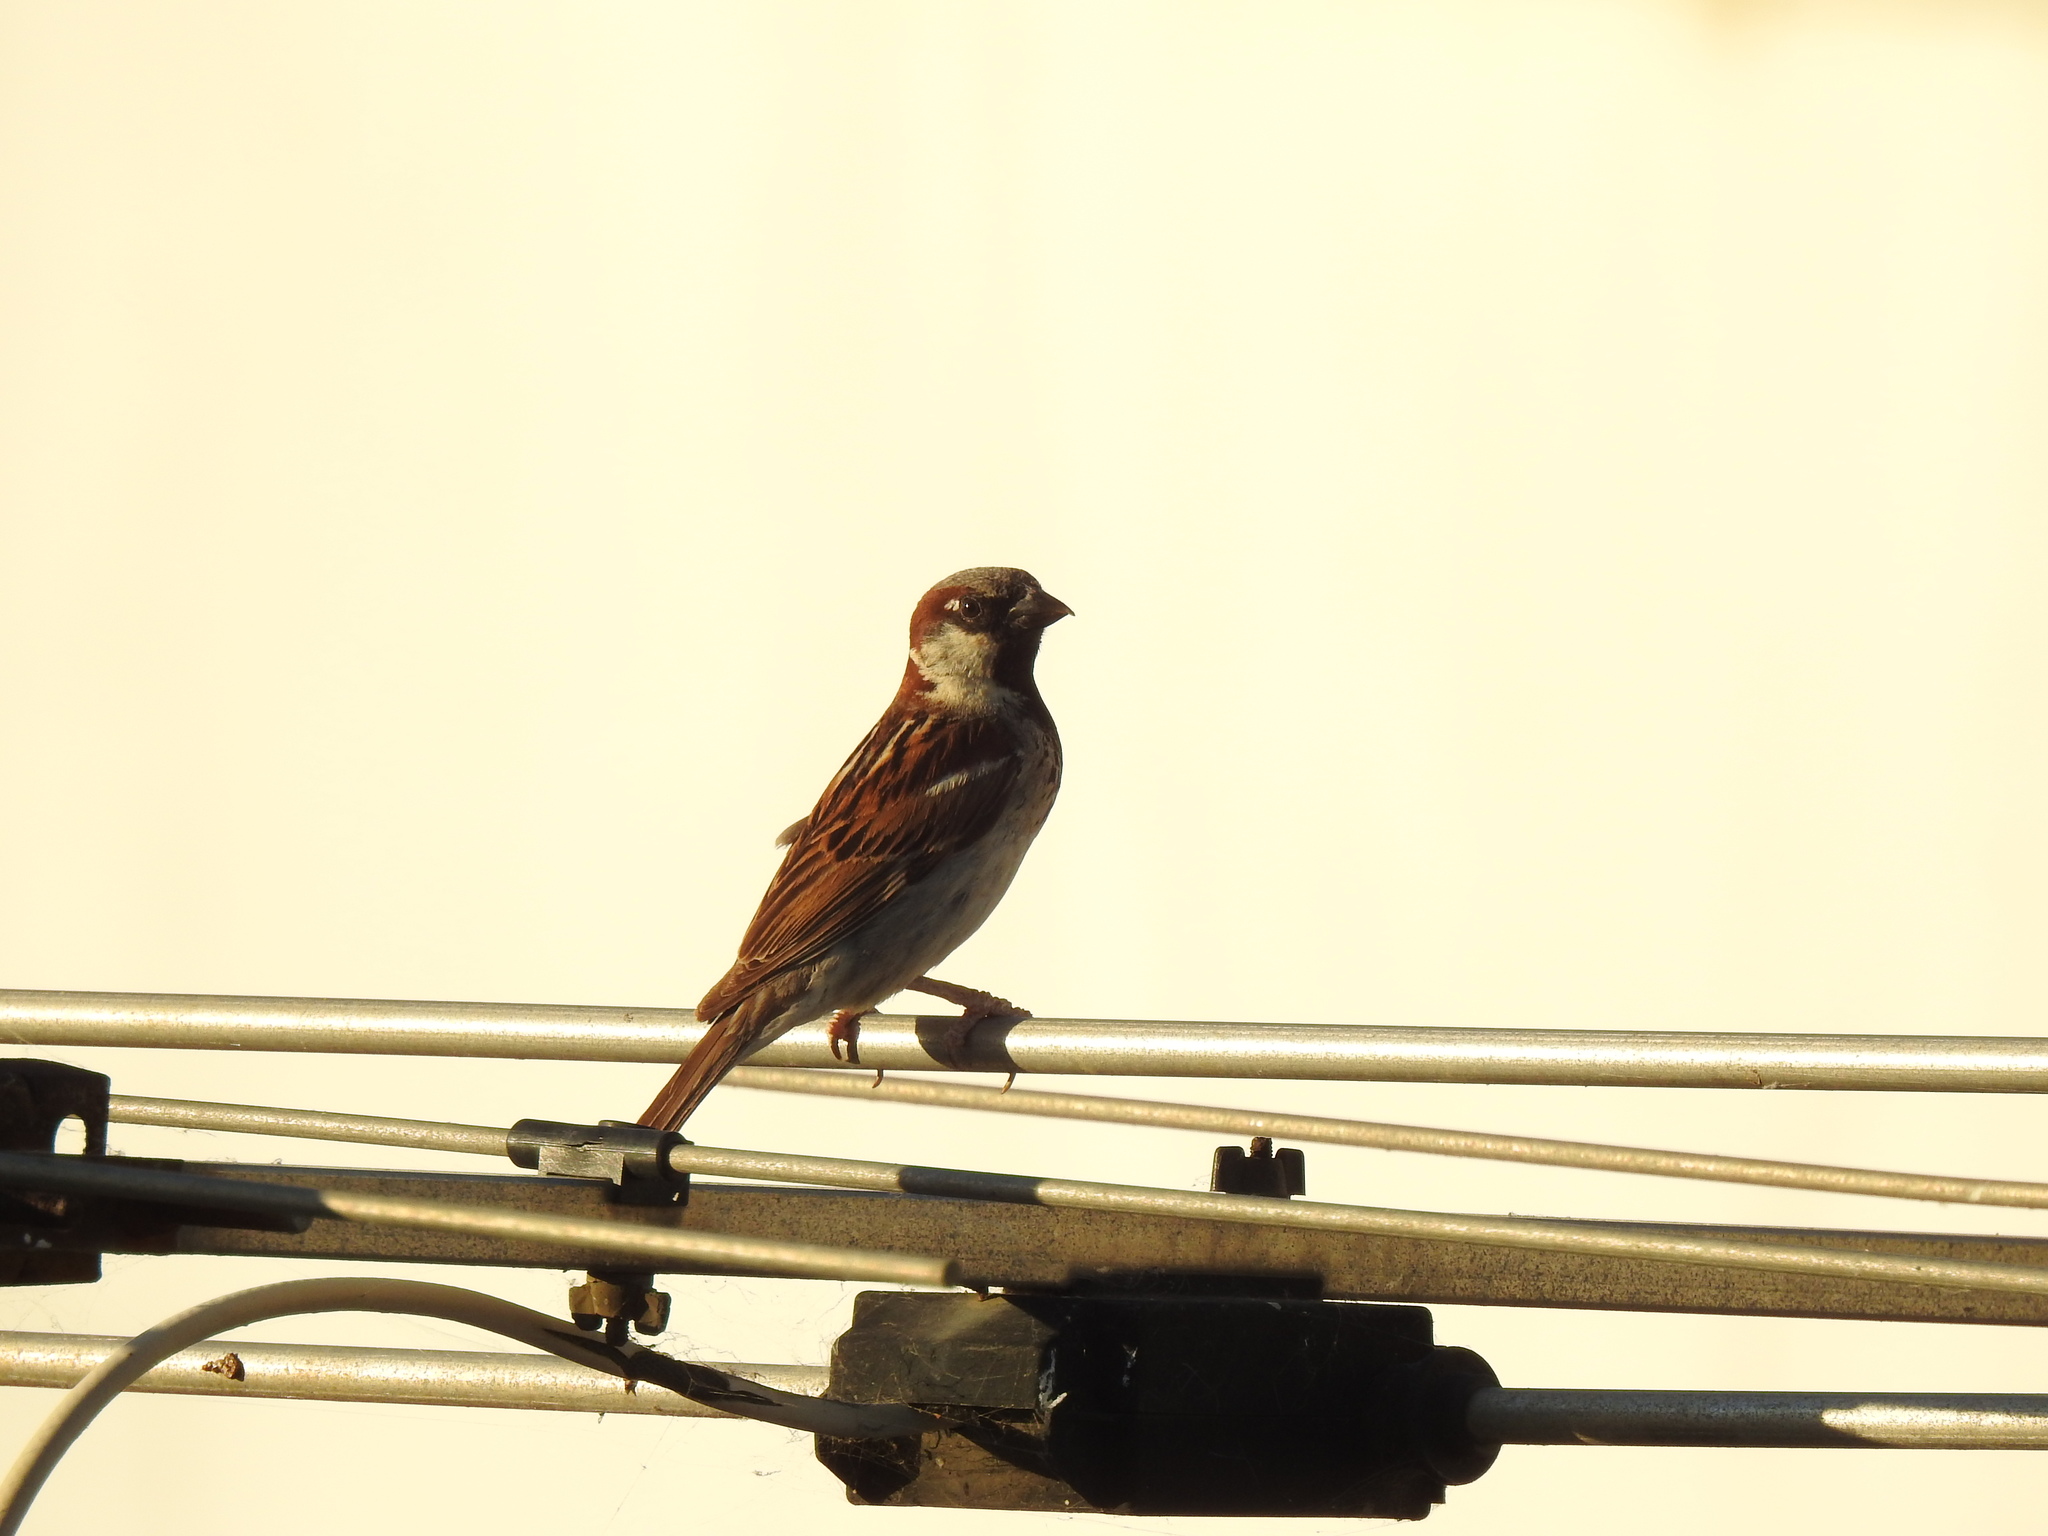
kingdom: Animalia
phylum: Chordata
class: Aves
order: Passeriformes
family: Passeridae
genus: Passer
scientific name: Passer domesticus
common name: House sparrow
